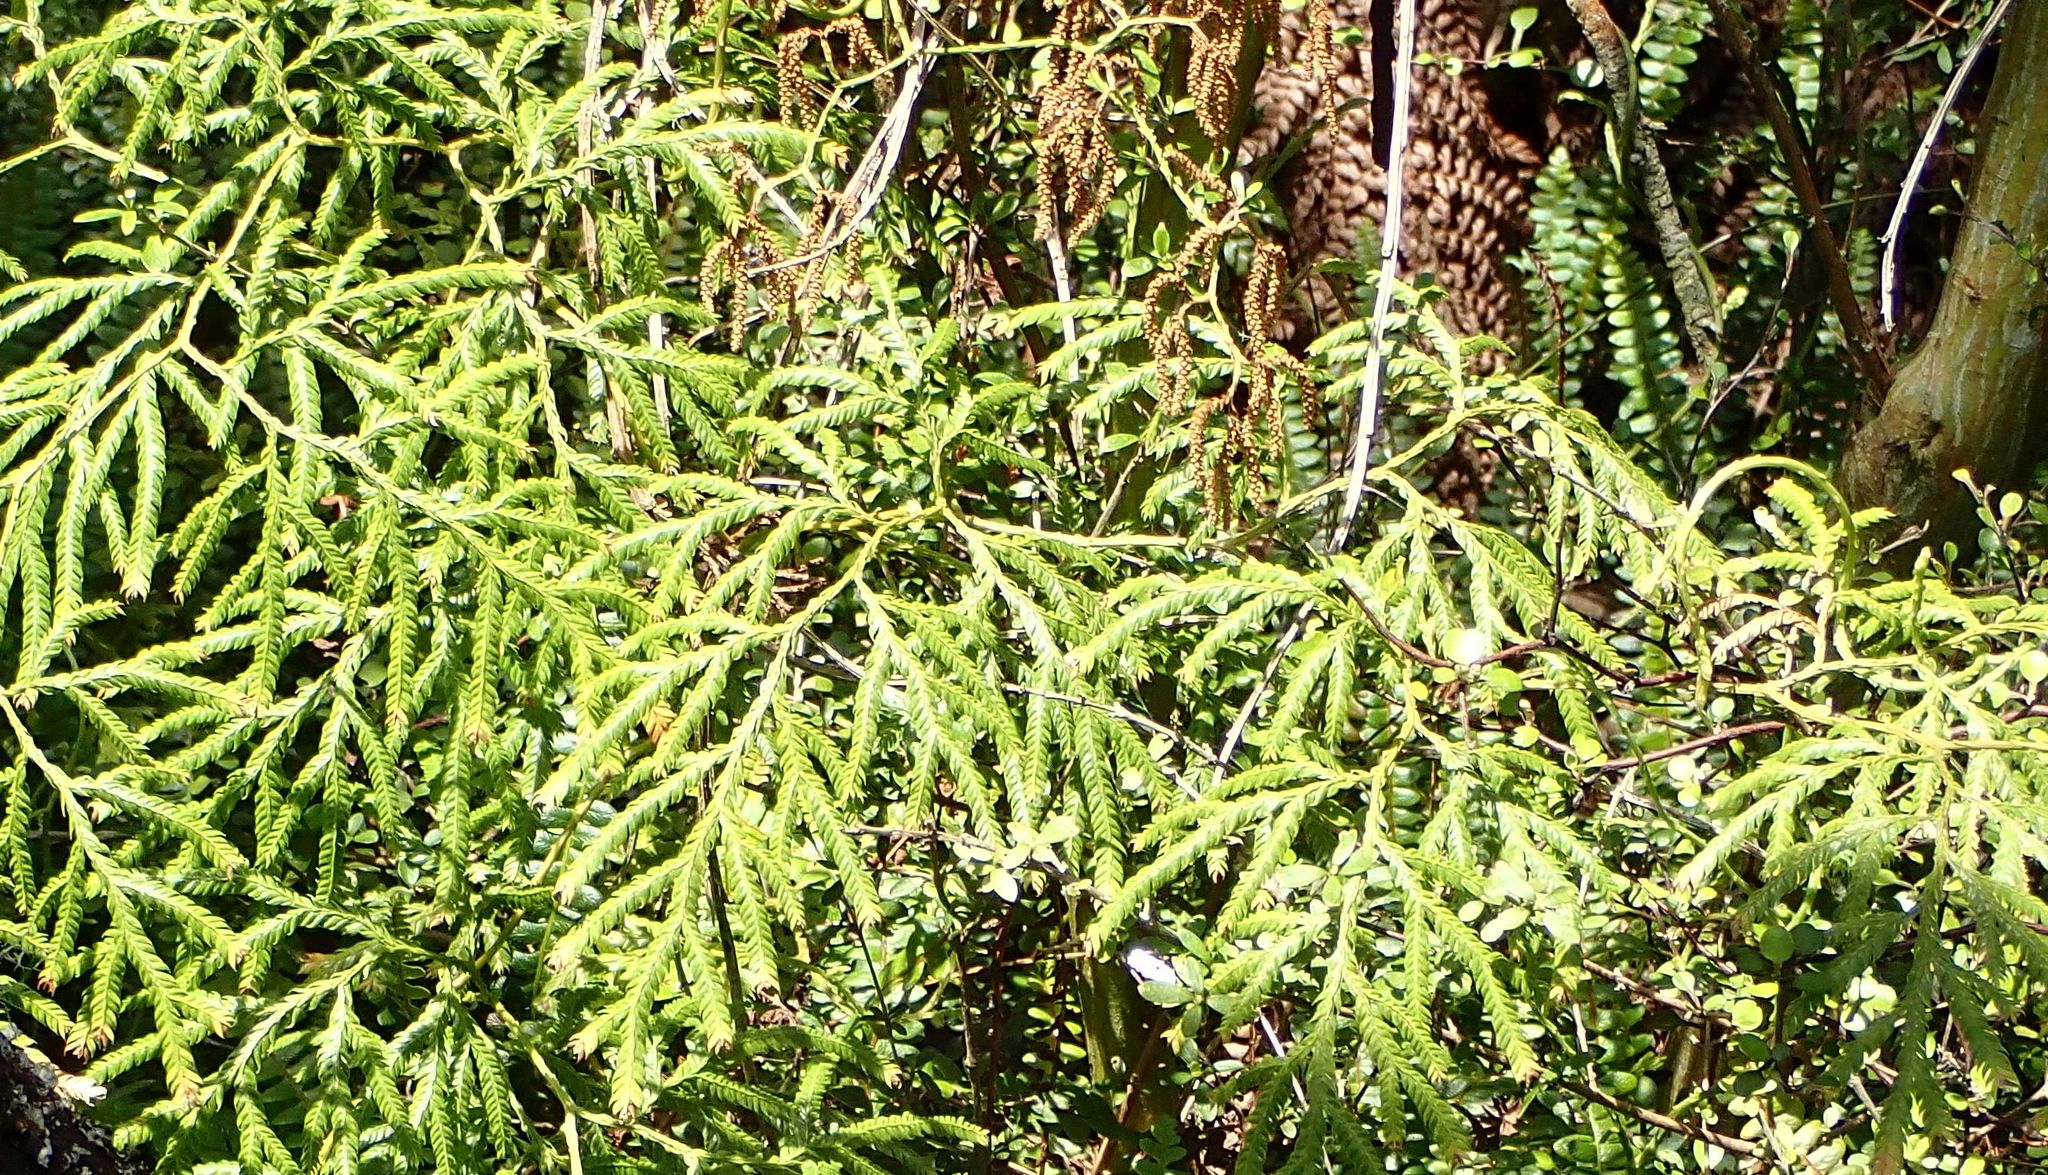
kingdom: Plantae
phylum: Tracheophyta
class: Lycopodiopsida
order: Lycopodiales
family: Lycopodiaceae
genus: Lycopodium
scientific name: Lycopodium volubile
